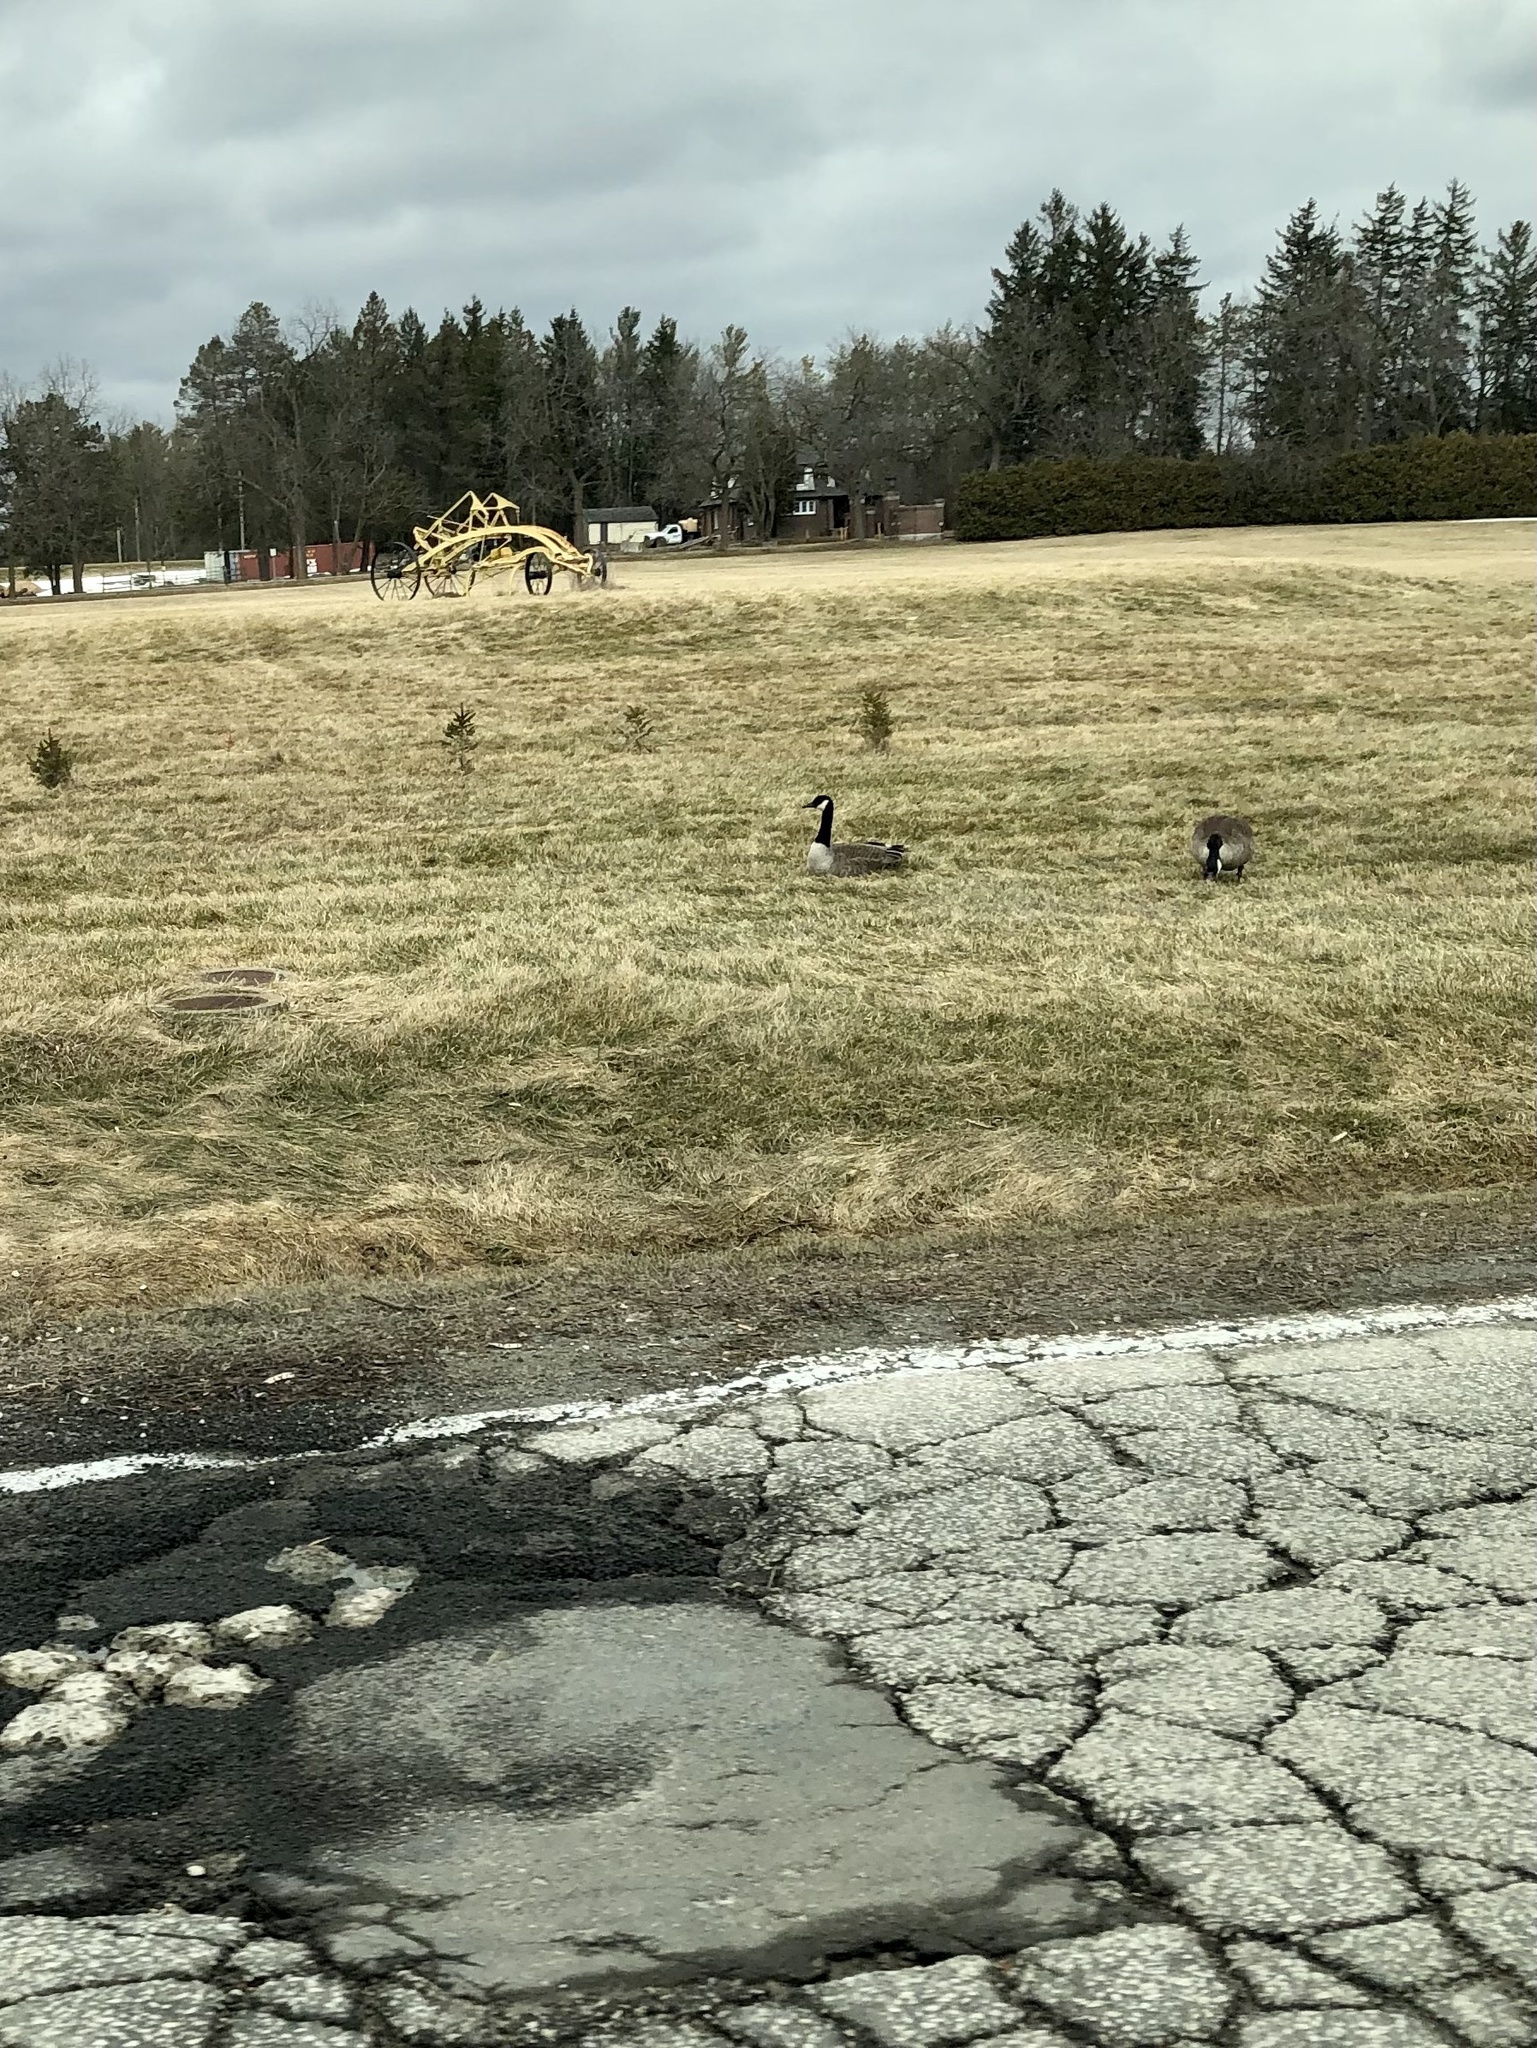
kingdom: Animalia
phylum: Chordata
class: Aves
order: Anseriformes
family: Anatidae
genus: Branta
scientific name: Branta canadensis
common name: Canada goose
